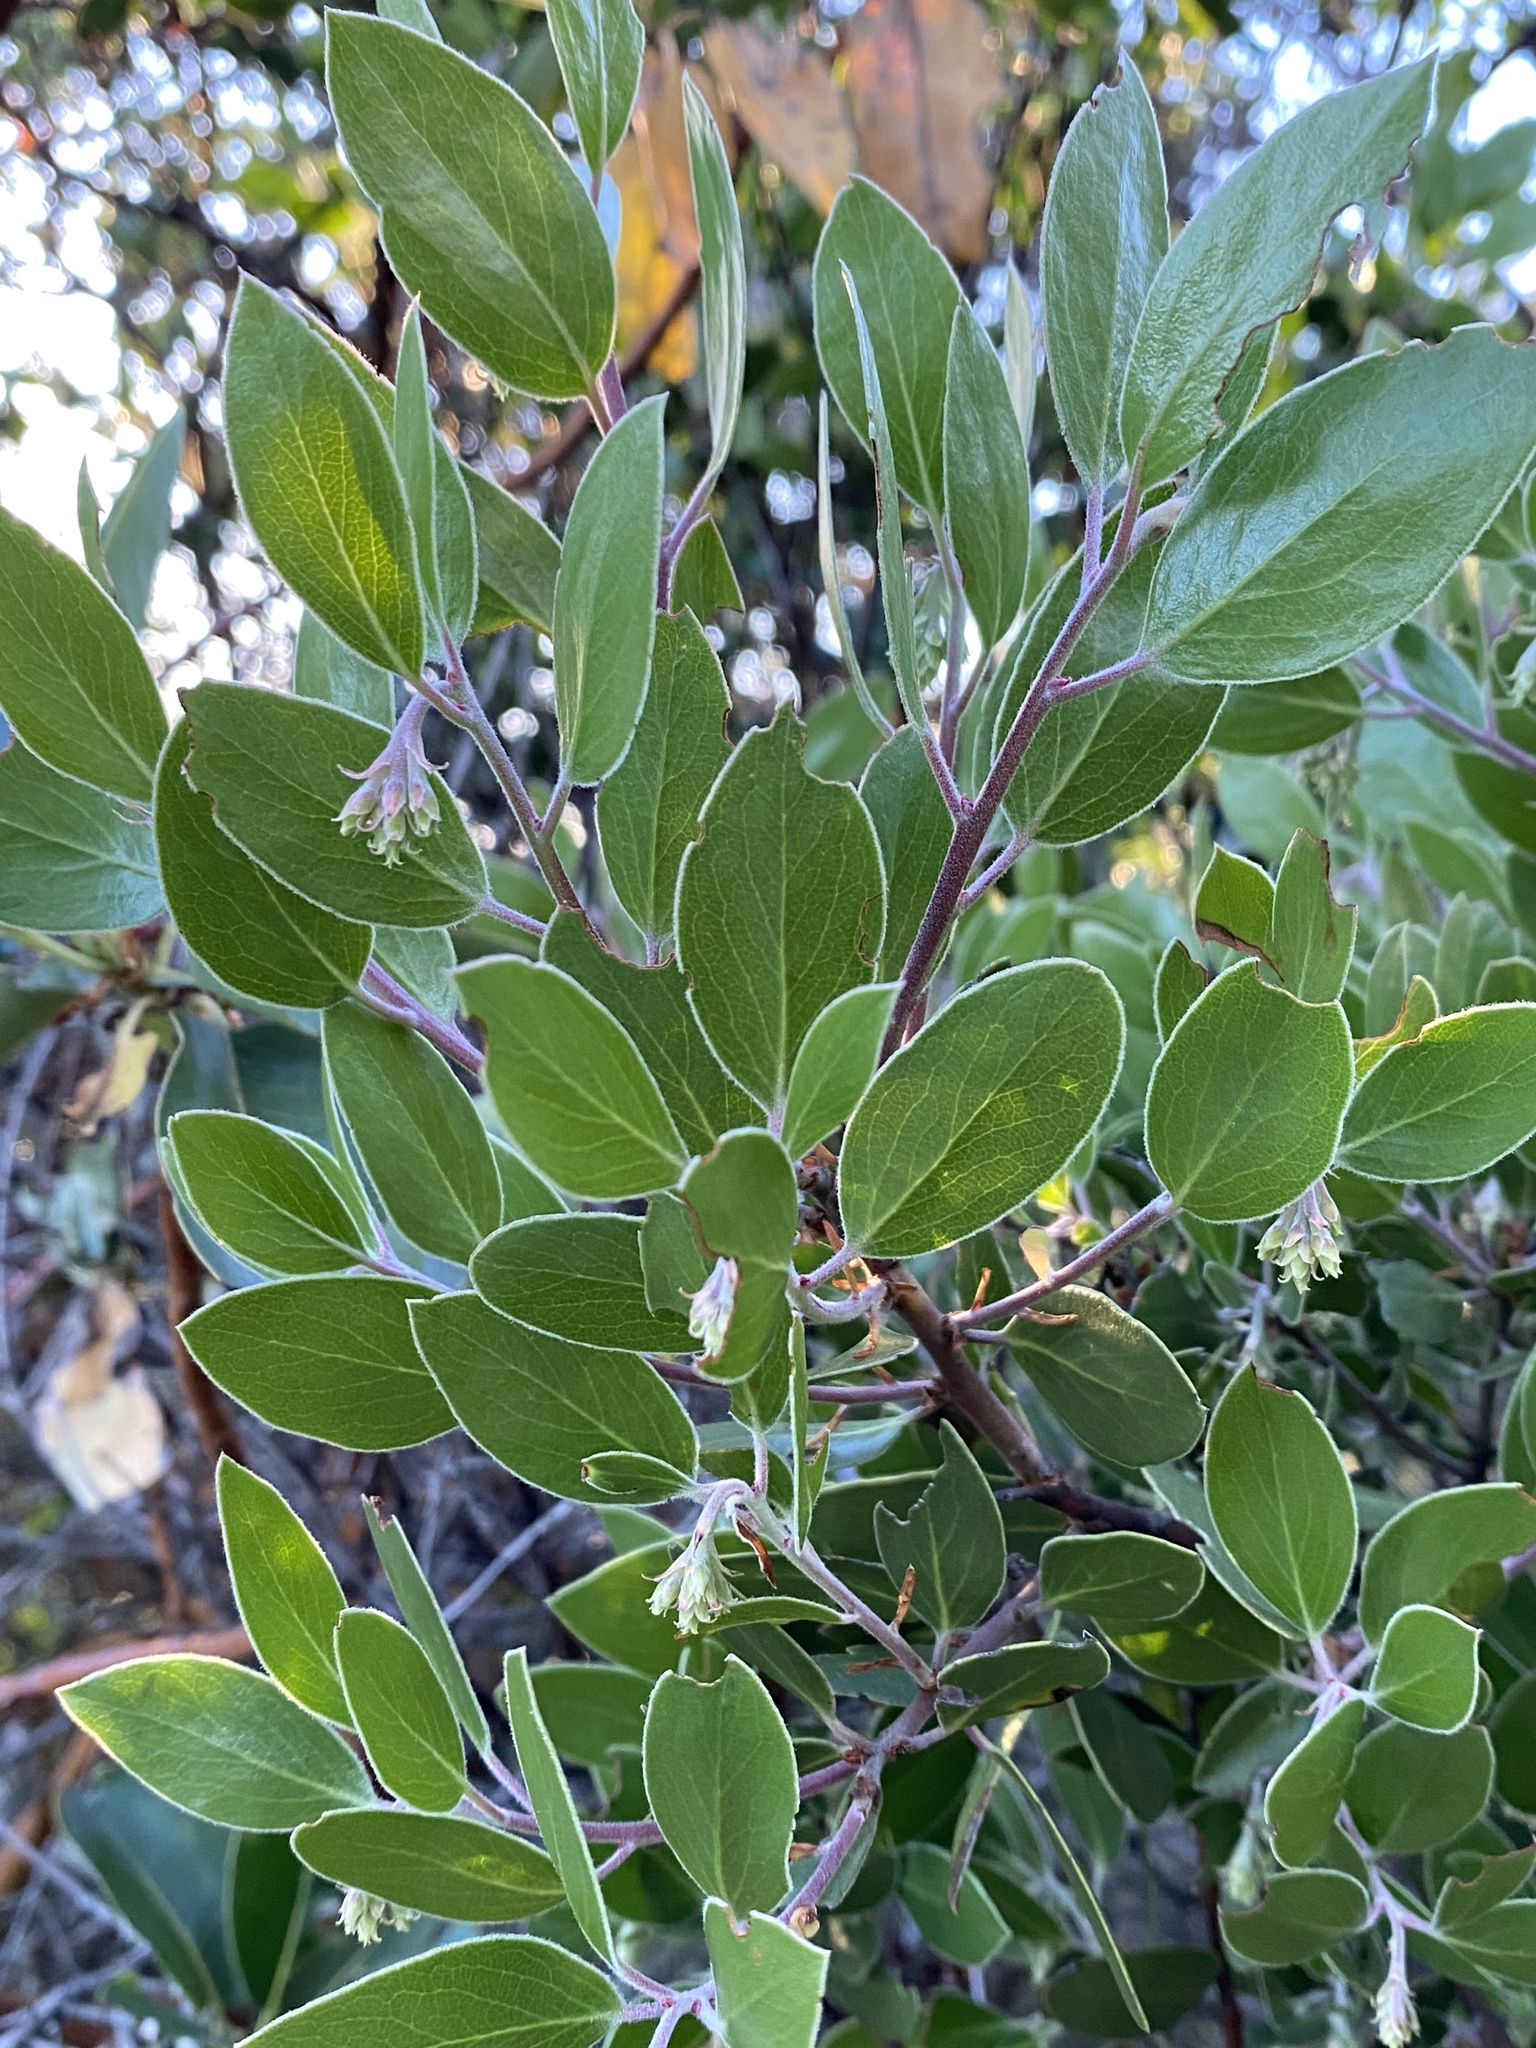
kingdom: Plantae
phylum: Tracheophyta
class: Magnoliopsida
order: Ericales
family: Ericaceae
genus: Arctostaphylos
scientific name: Arctostaphylos manzanita
